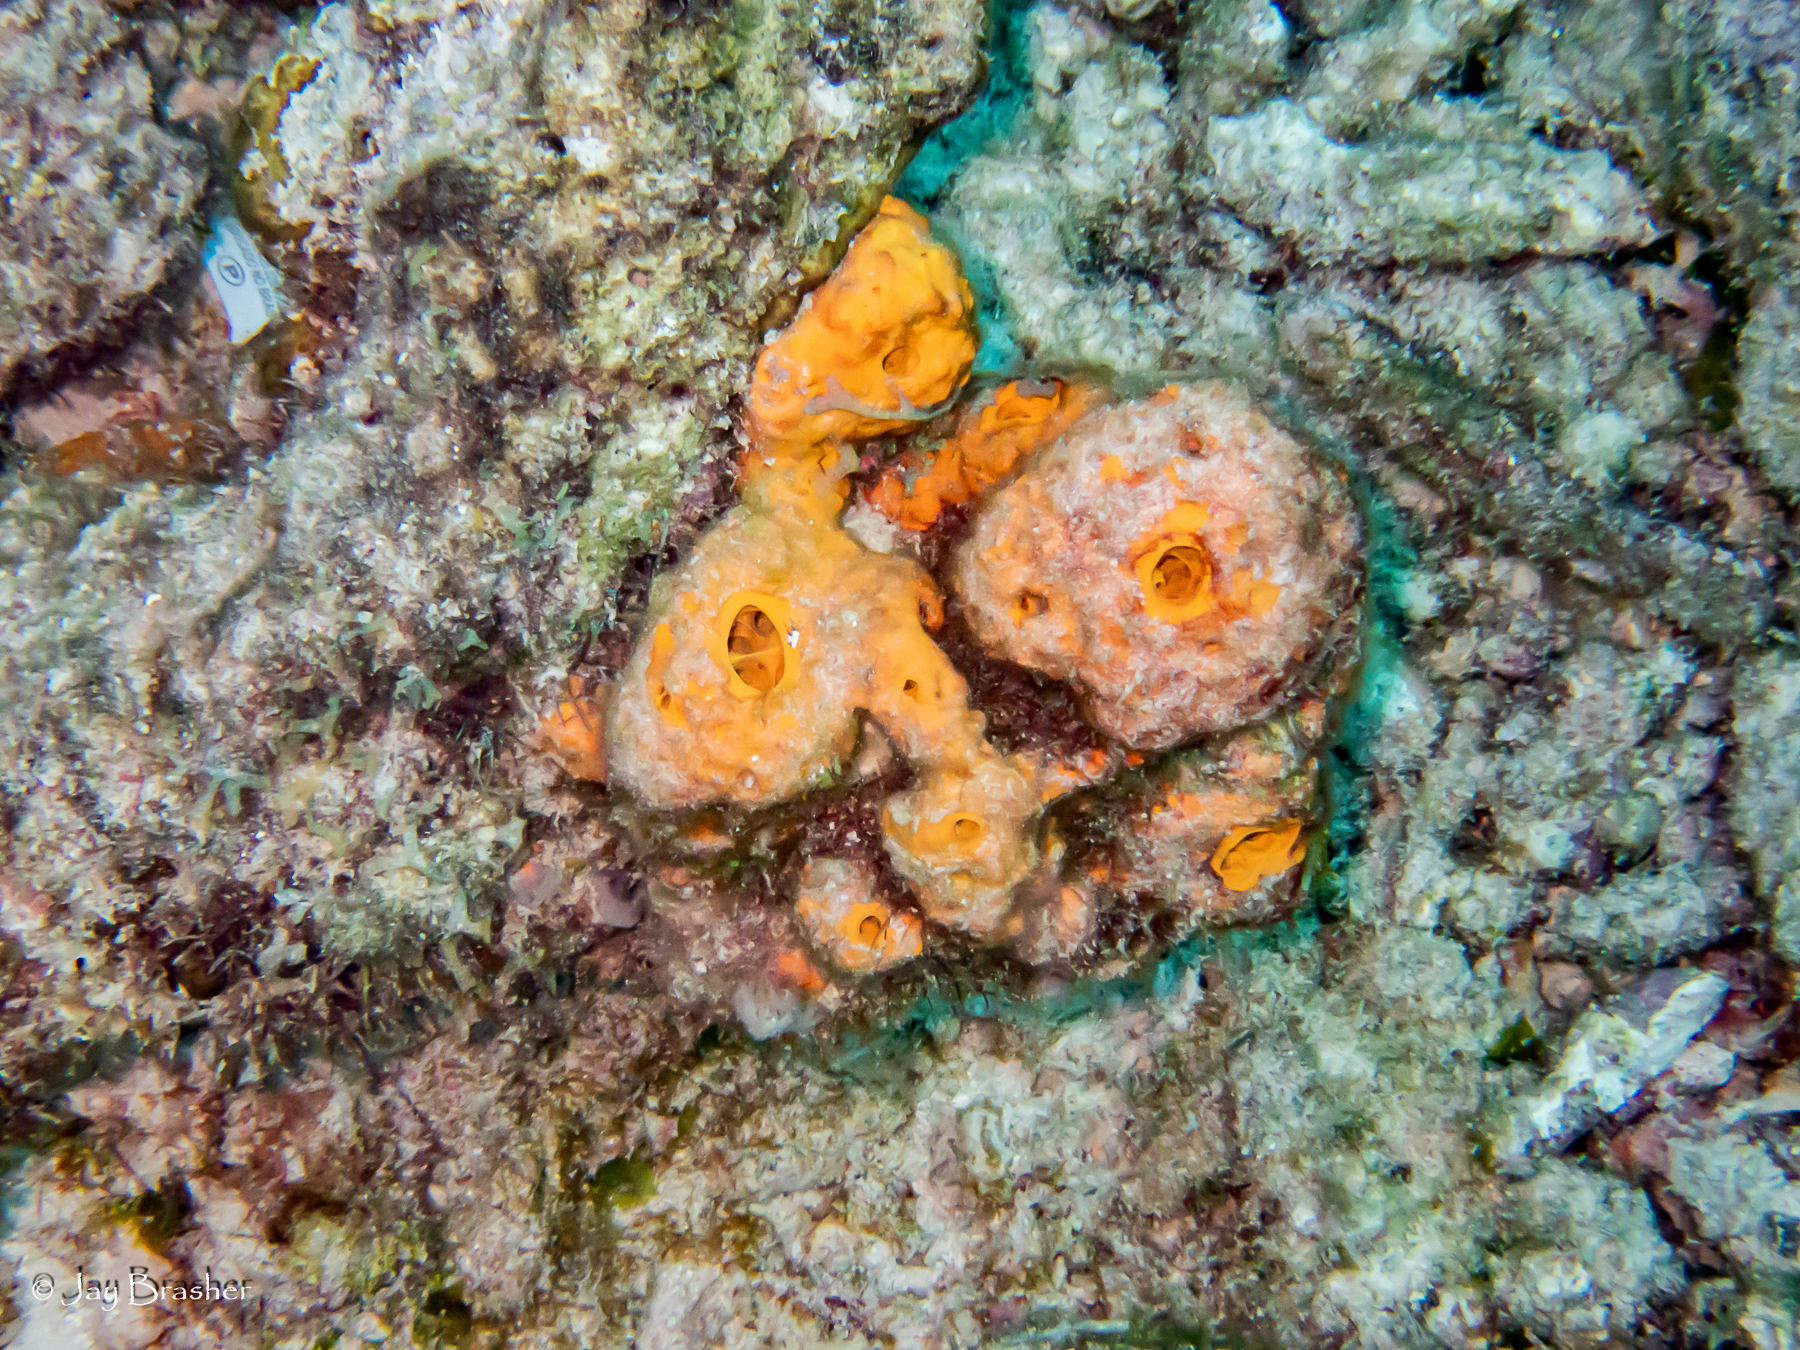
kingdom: Animalia
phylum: Porifera
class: Demospongiae
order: Verongiida
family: Aplysinidae
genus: Aiolochroia
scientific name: Aiolochroia crassa
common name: Branching tube sponge
